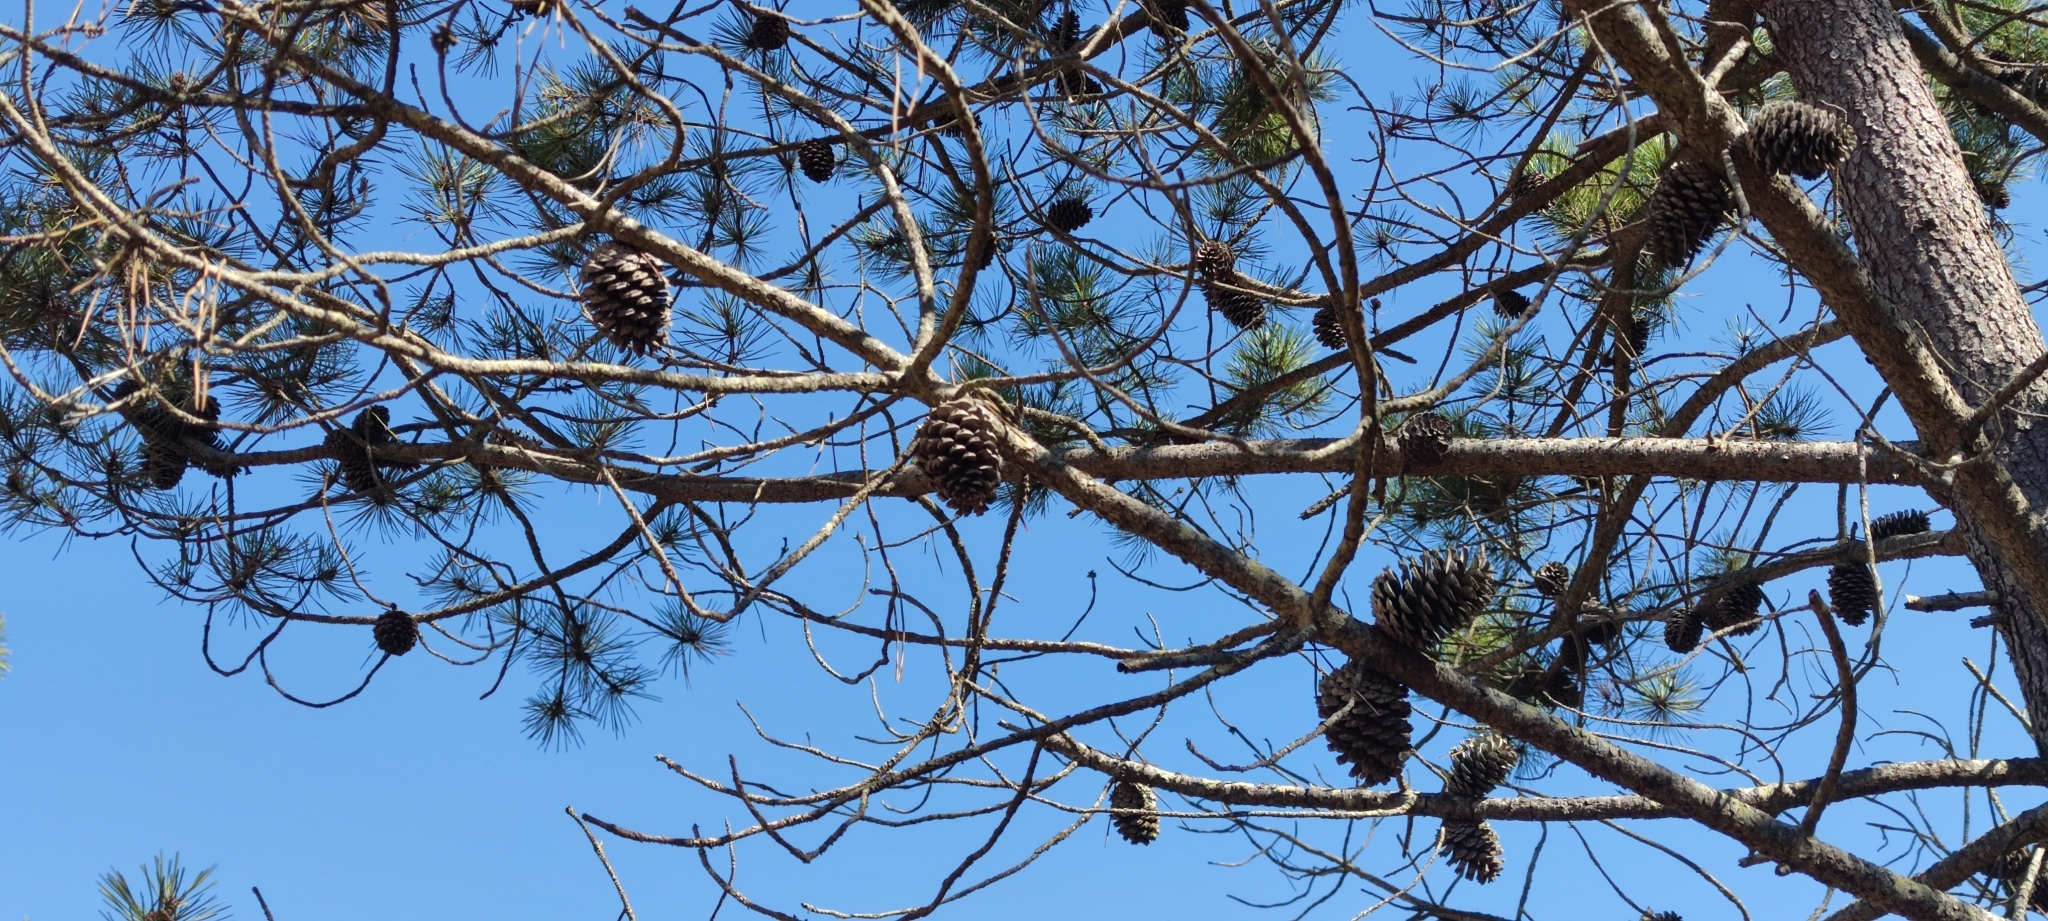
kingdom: Plantae
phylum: Tracheophyta
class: Pinopsida
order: Pinales
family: Pinaceae
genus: Pinus
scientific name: Pinus pinaster
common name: Maritime pine
